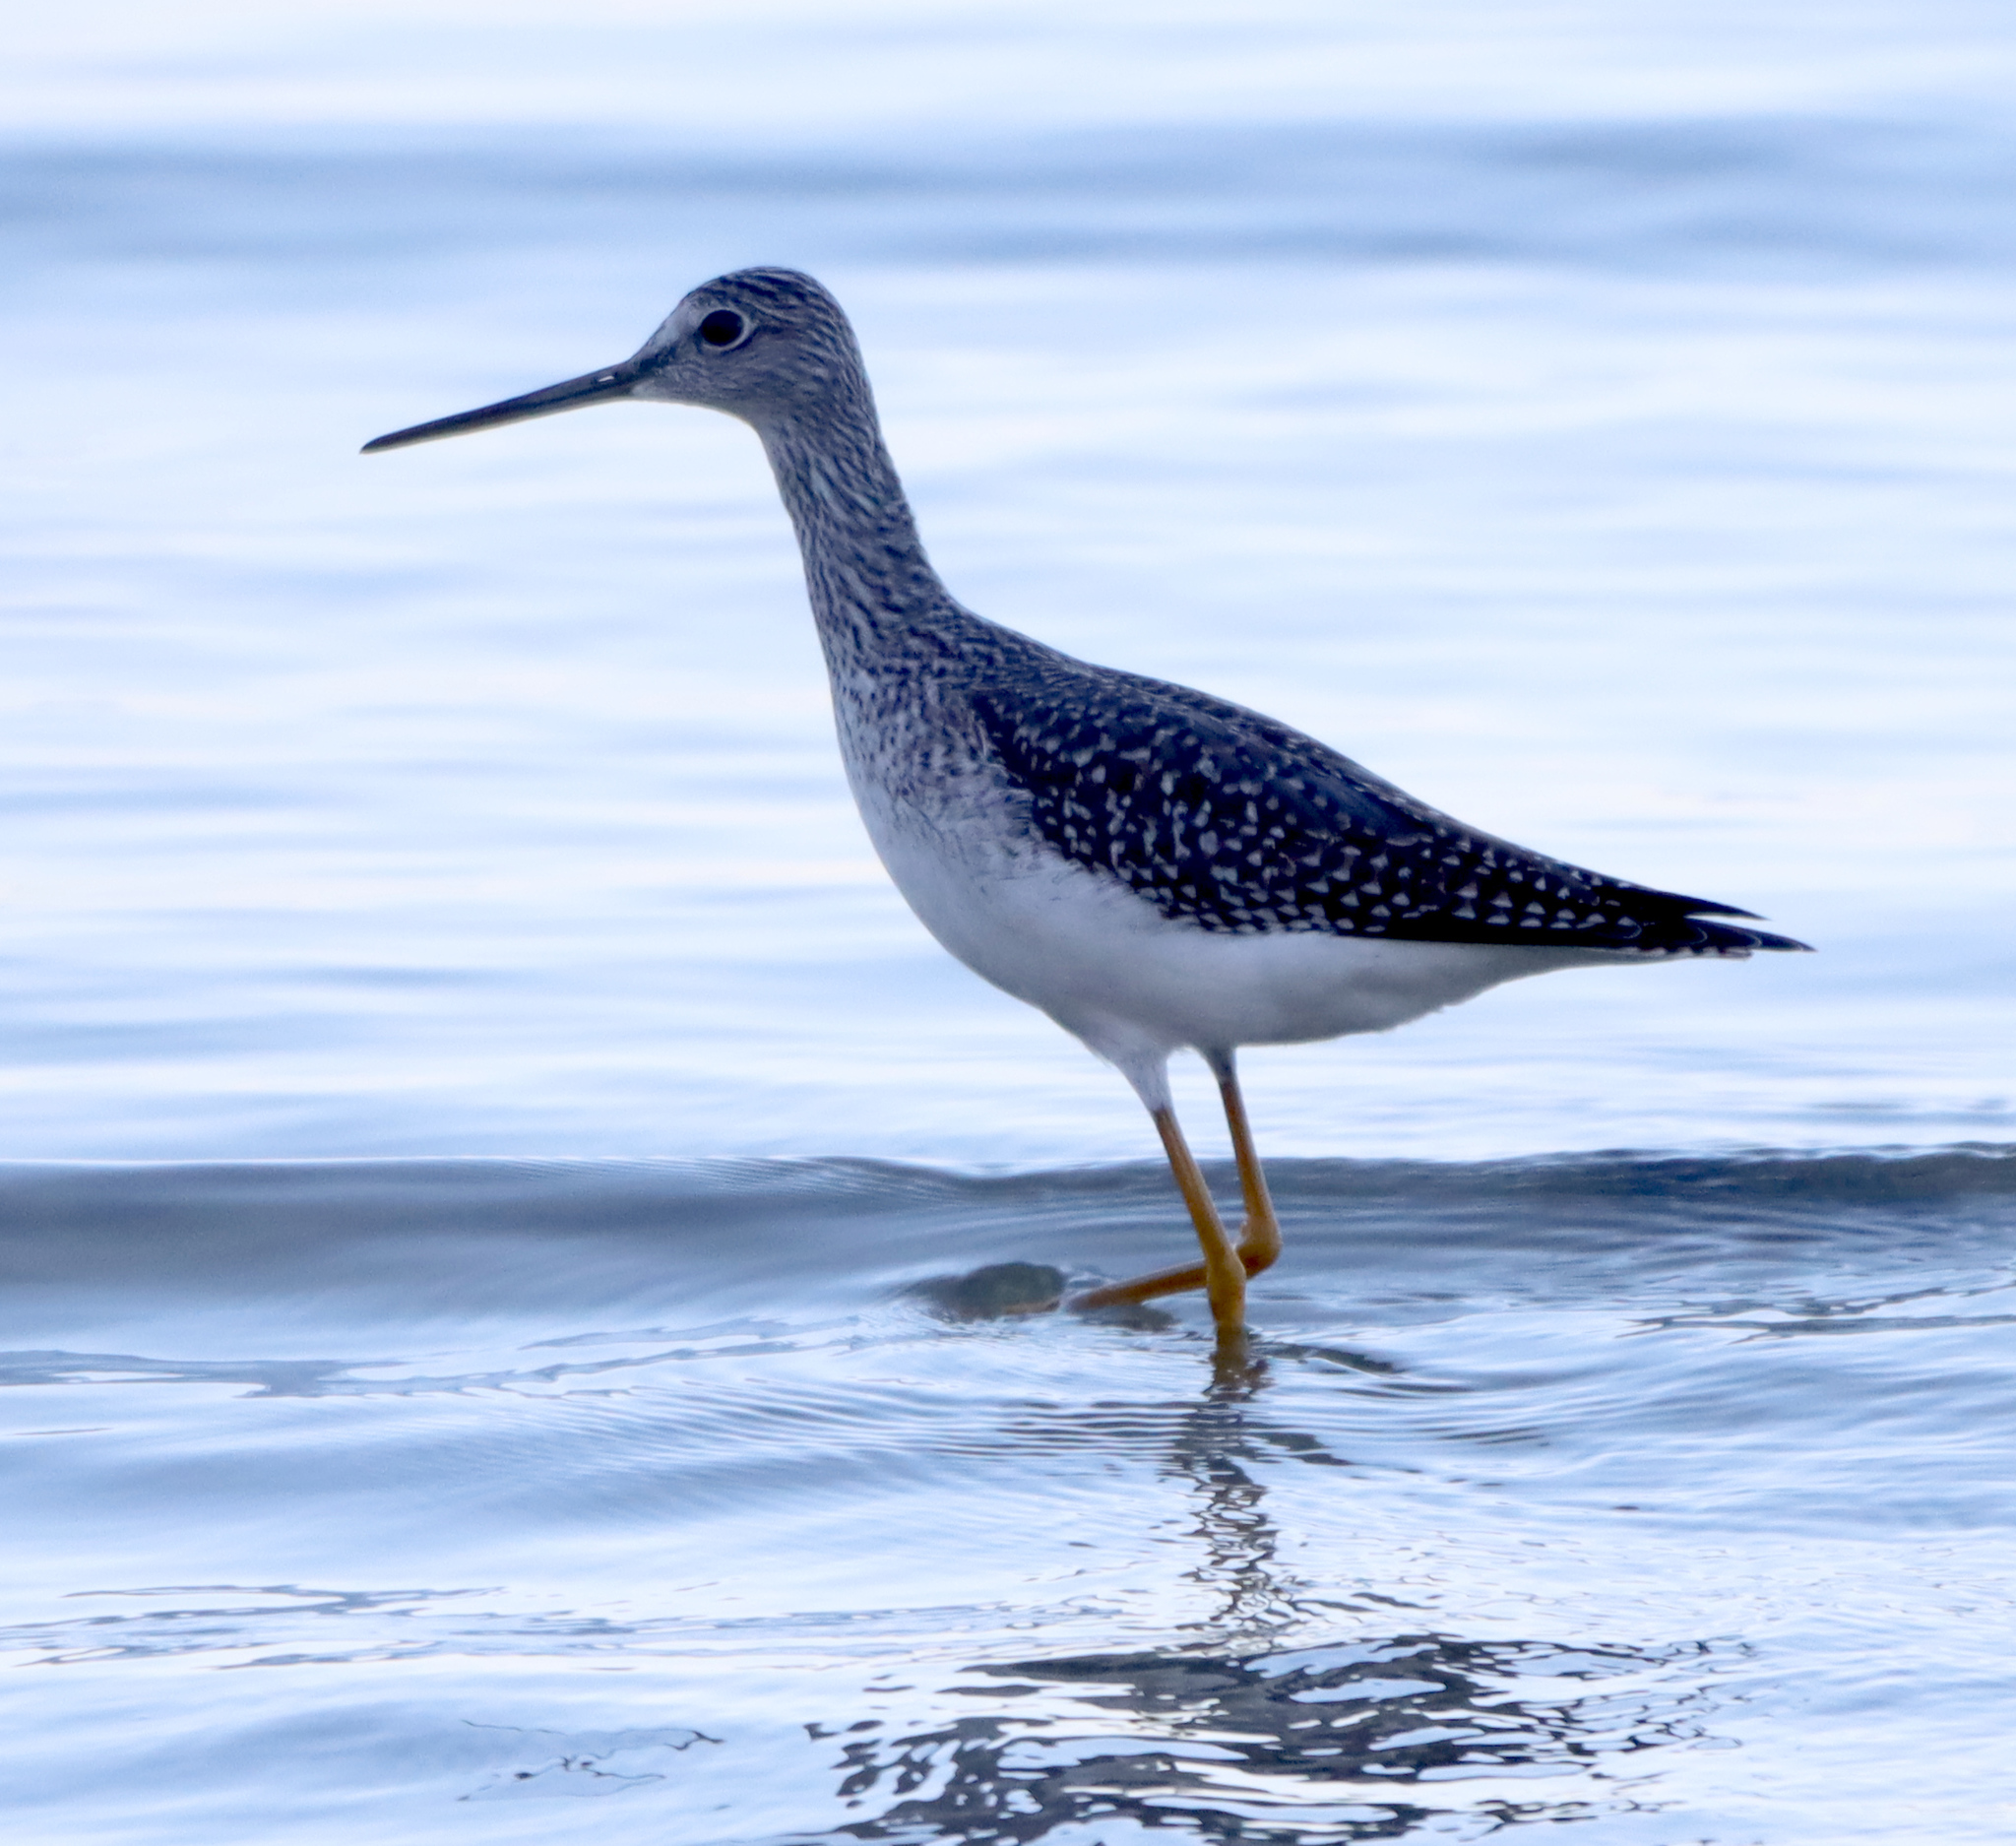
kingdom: Animalia
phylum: Chordata
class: Aves
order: Charadriiformes
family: Scolopacidae
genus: Tringa
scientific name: Tringa melanoleuca
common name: Greater yellowlegs
